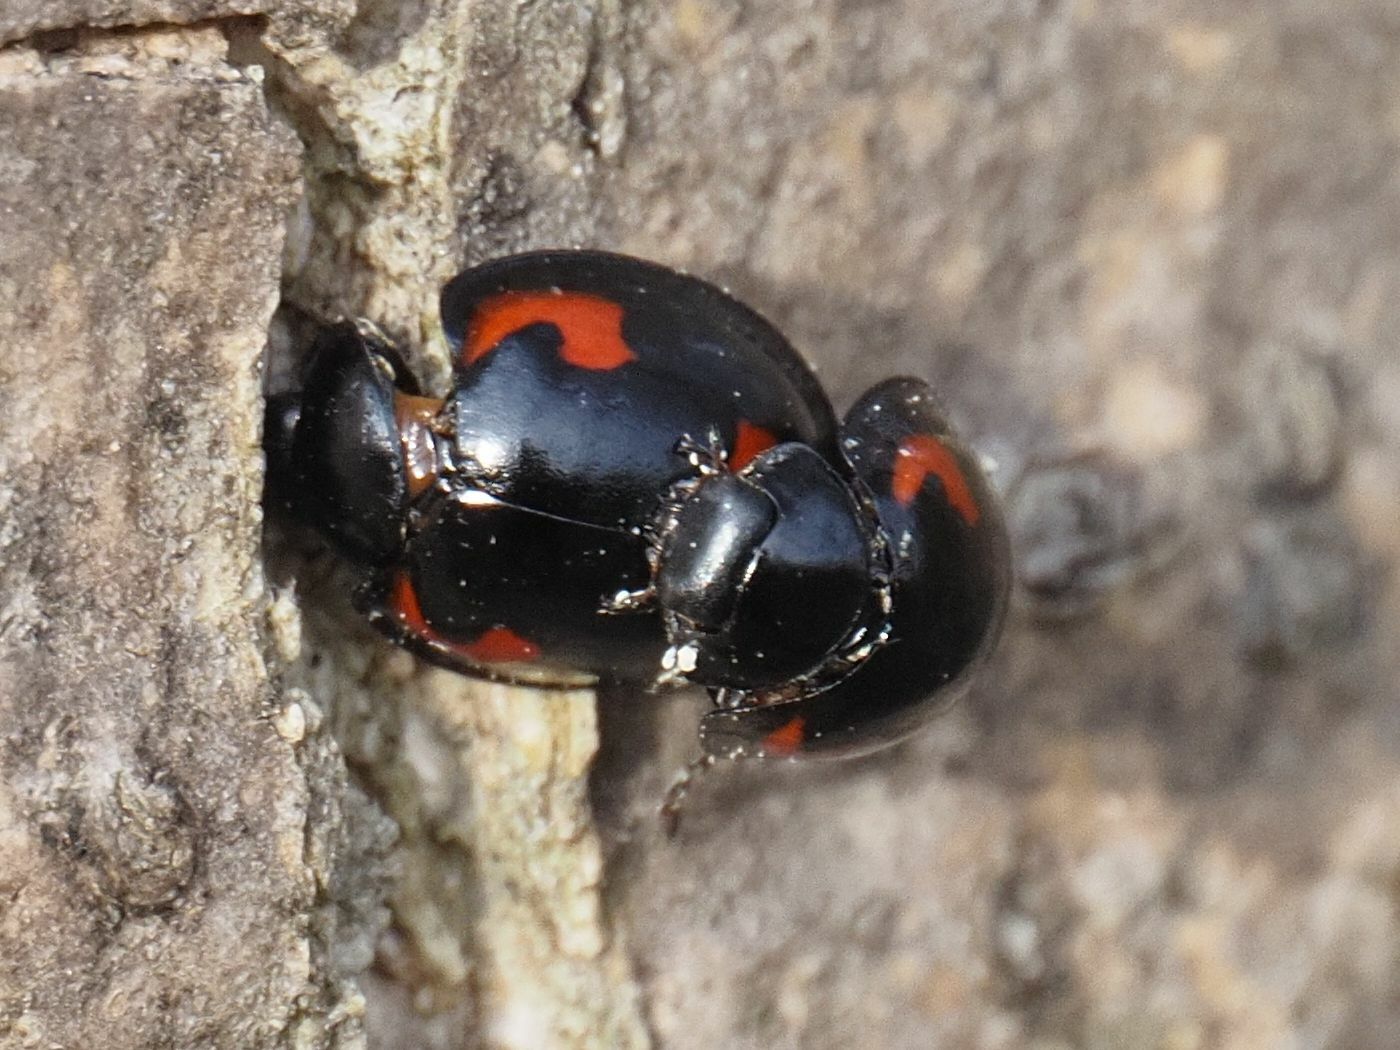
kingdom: Animalia
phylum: Arthropoda
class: Insecta
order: Coleoptera
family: Coccinellidae
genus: Brumus
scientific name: Brumus quadripustulatus
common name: Ladybird beetle
